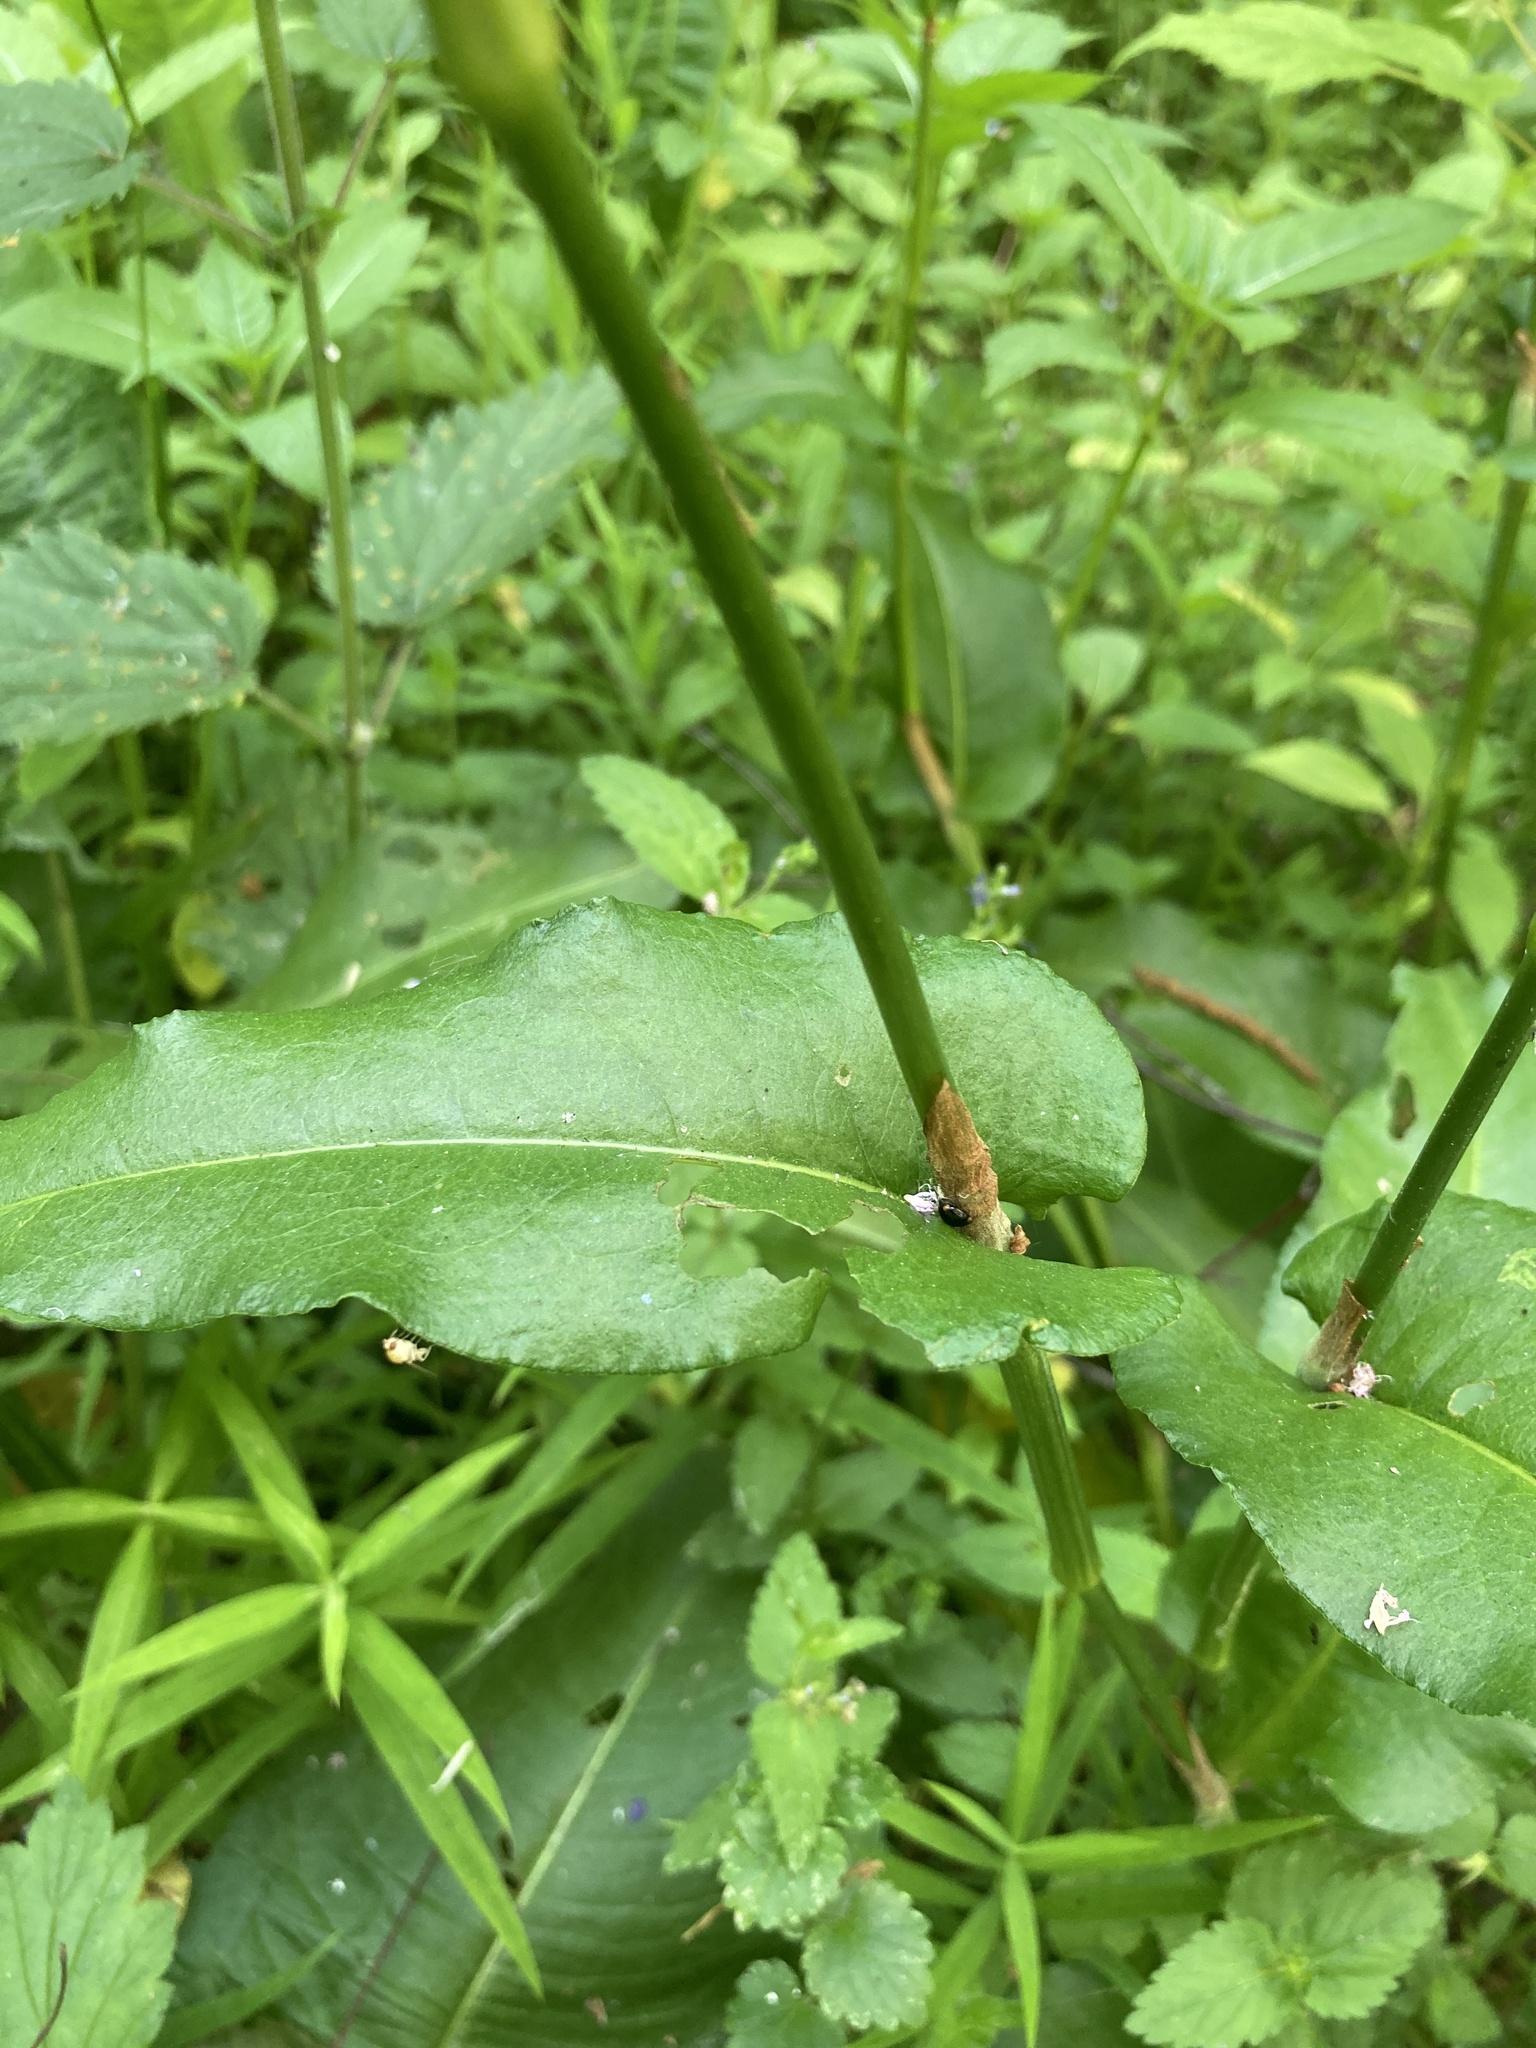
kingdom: Plantae
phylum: Tracheophyta
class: Magnoliopsida
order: Caryophyllales
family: Polygonaceae
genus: Bistorta
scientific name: Bistorta officinalis
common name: Common bistort
